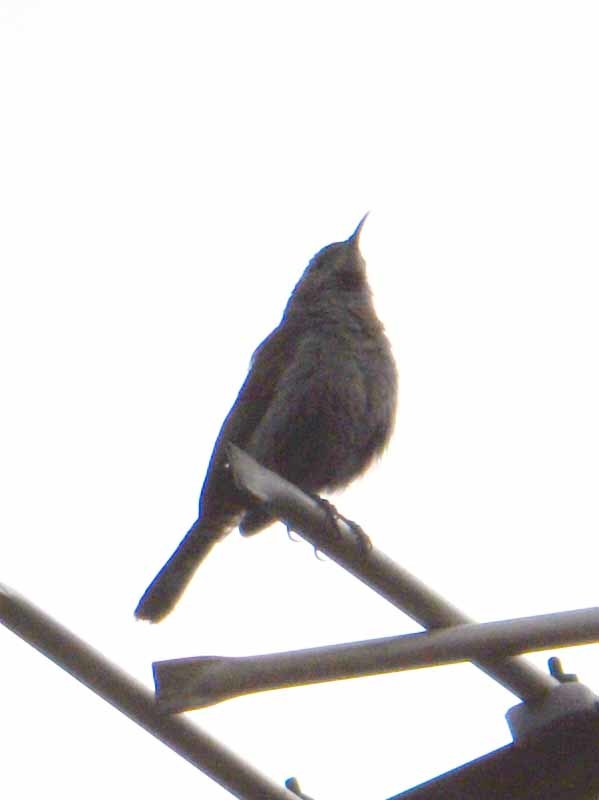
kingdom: Animalia
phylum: Chordata
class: Aves
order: Passeriformes
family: Troglodytidae
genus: Thryomanes
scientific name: Thryomanes bewickii
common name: Bewick's wren
